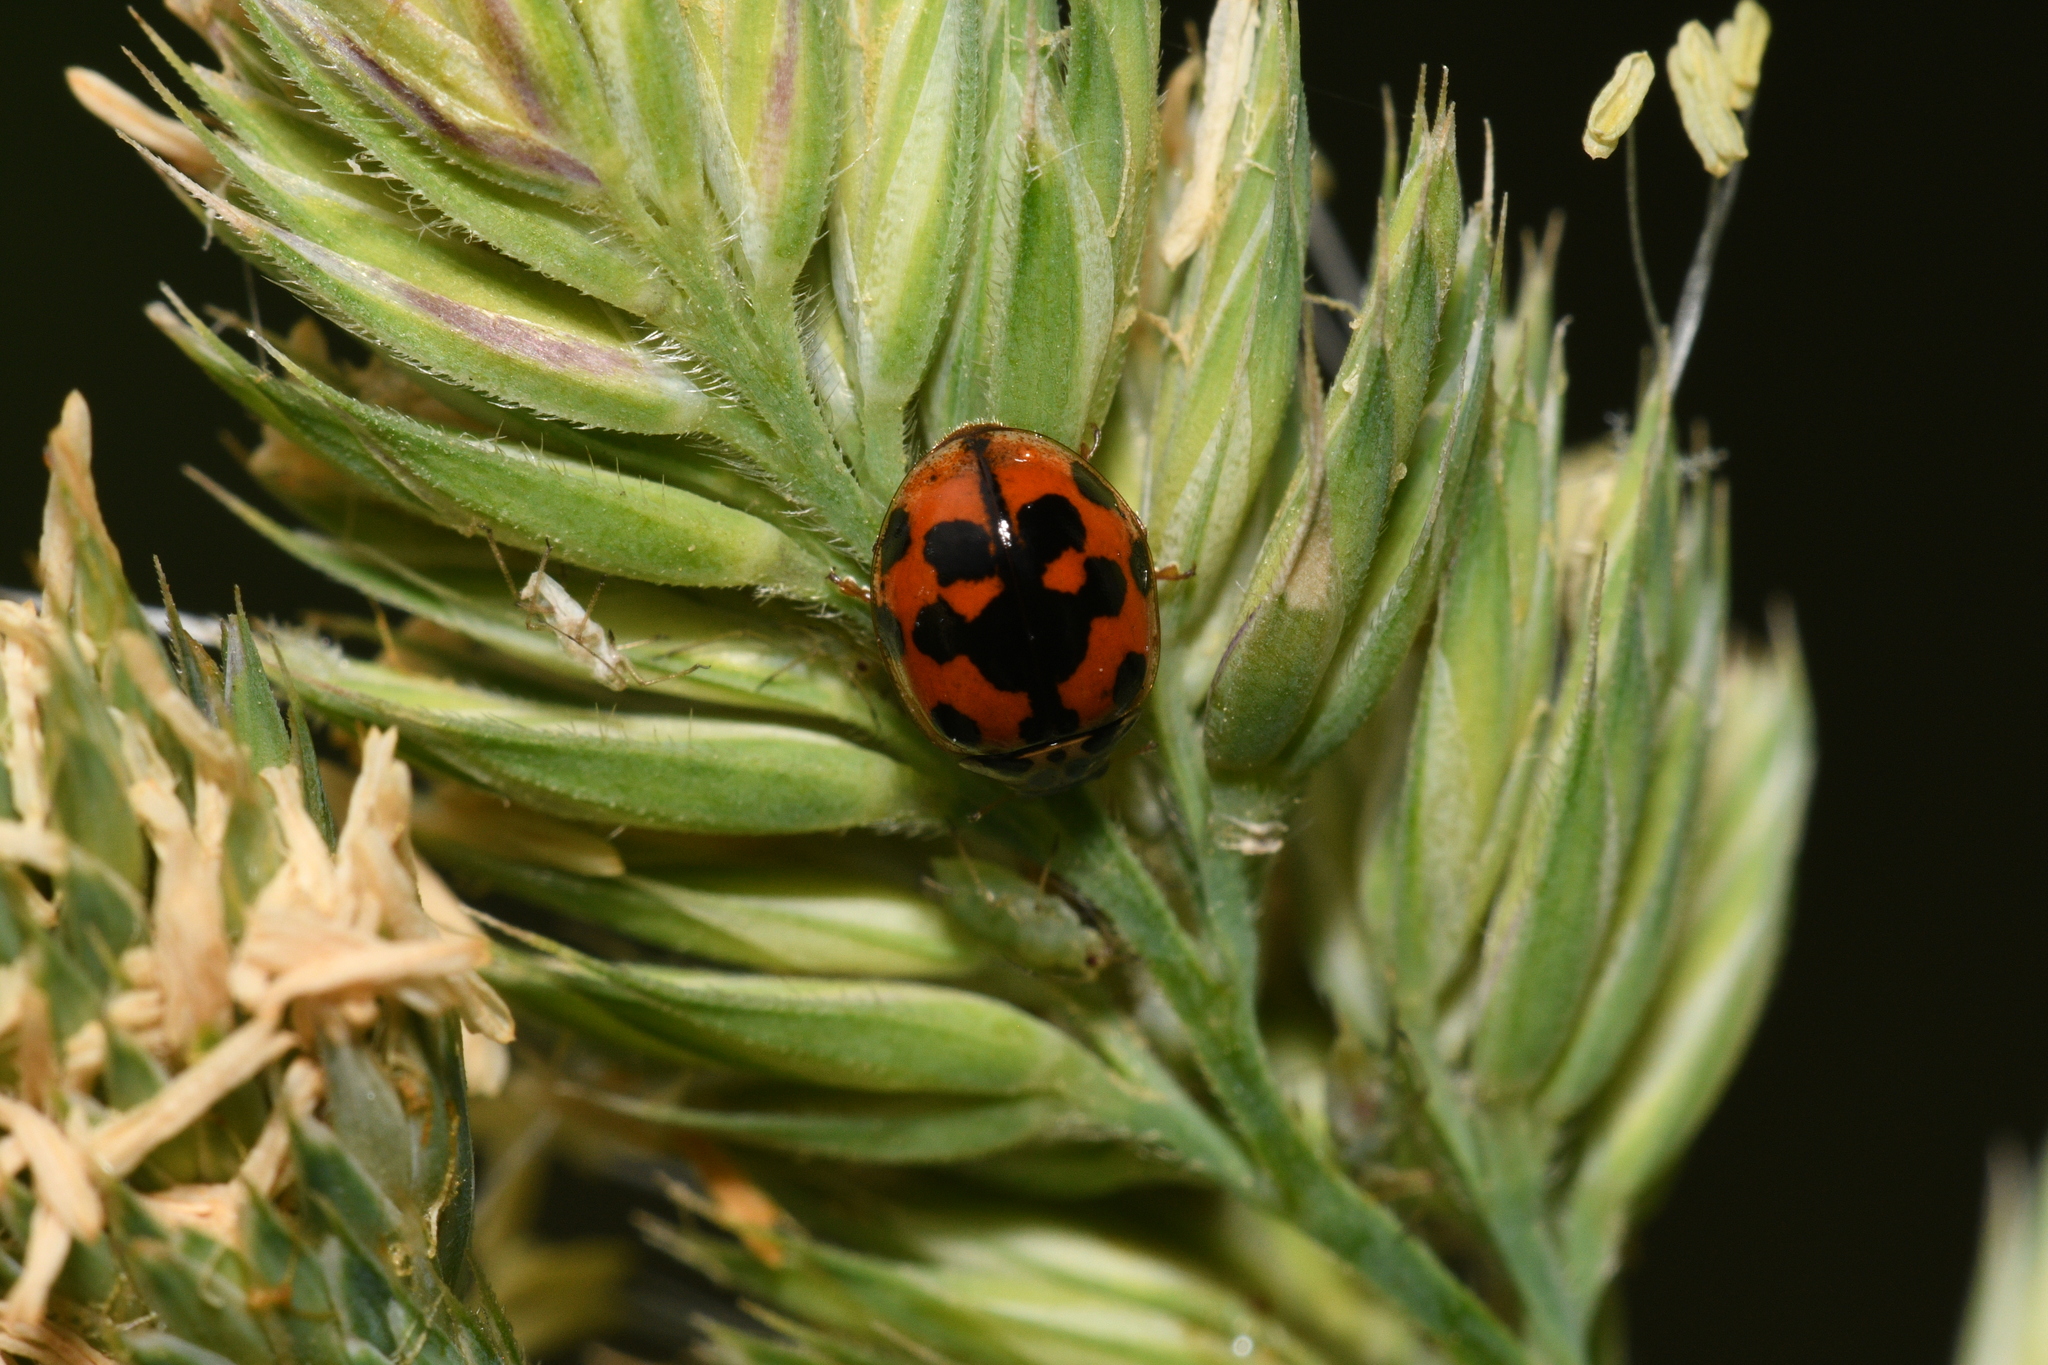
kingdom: Animalia
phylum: Arthropoda
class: Insecta
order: Coleoptera
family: Coccinellidae
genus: Adalia
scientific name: Adalia decempunctata
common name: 10-spot ladybird
